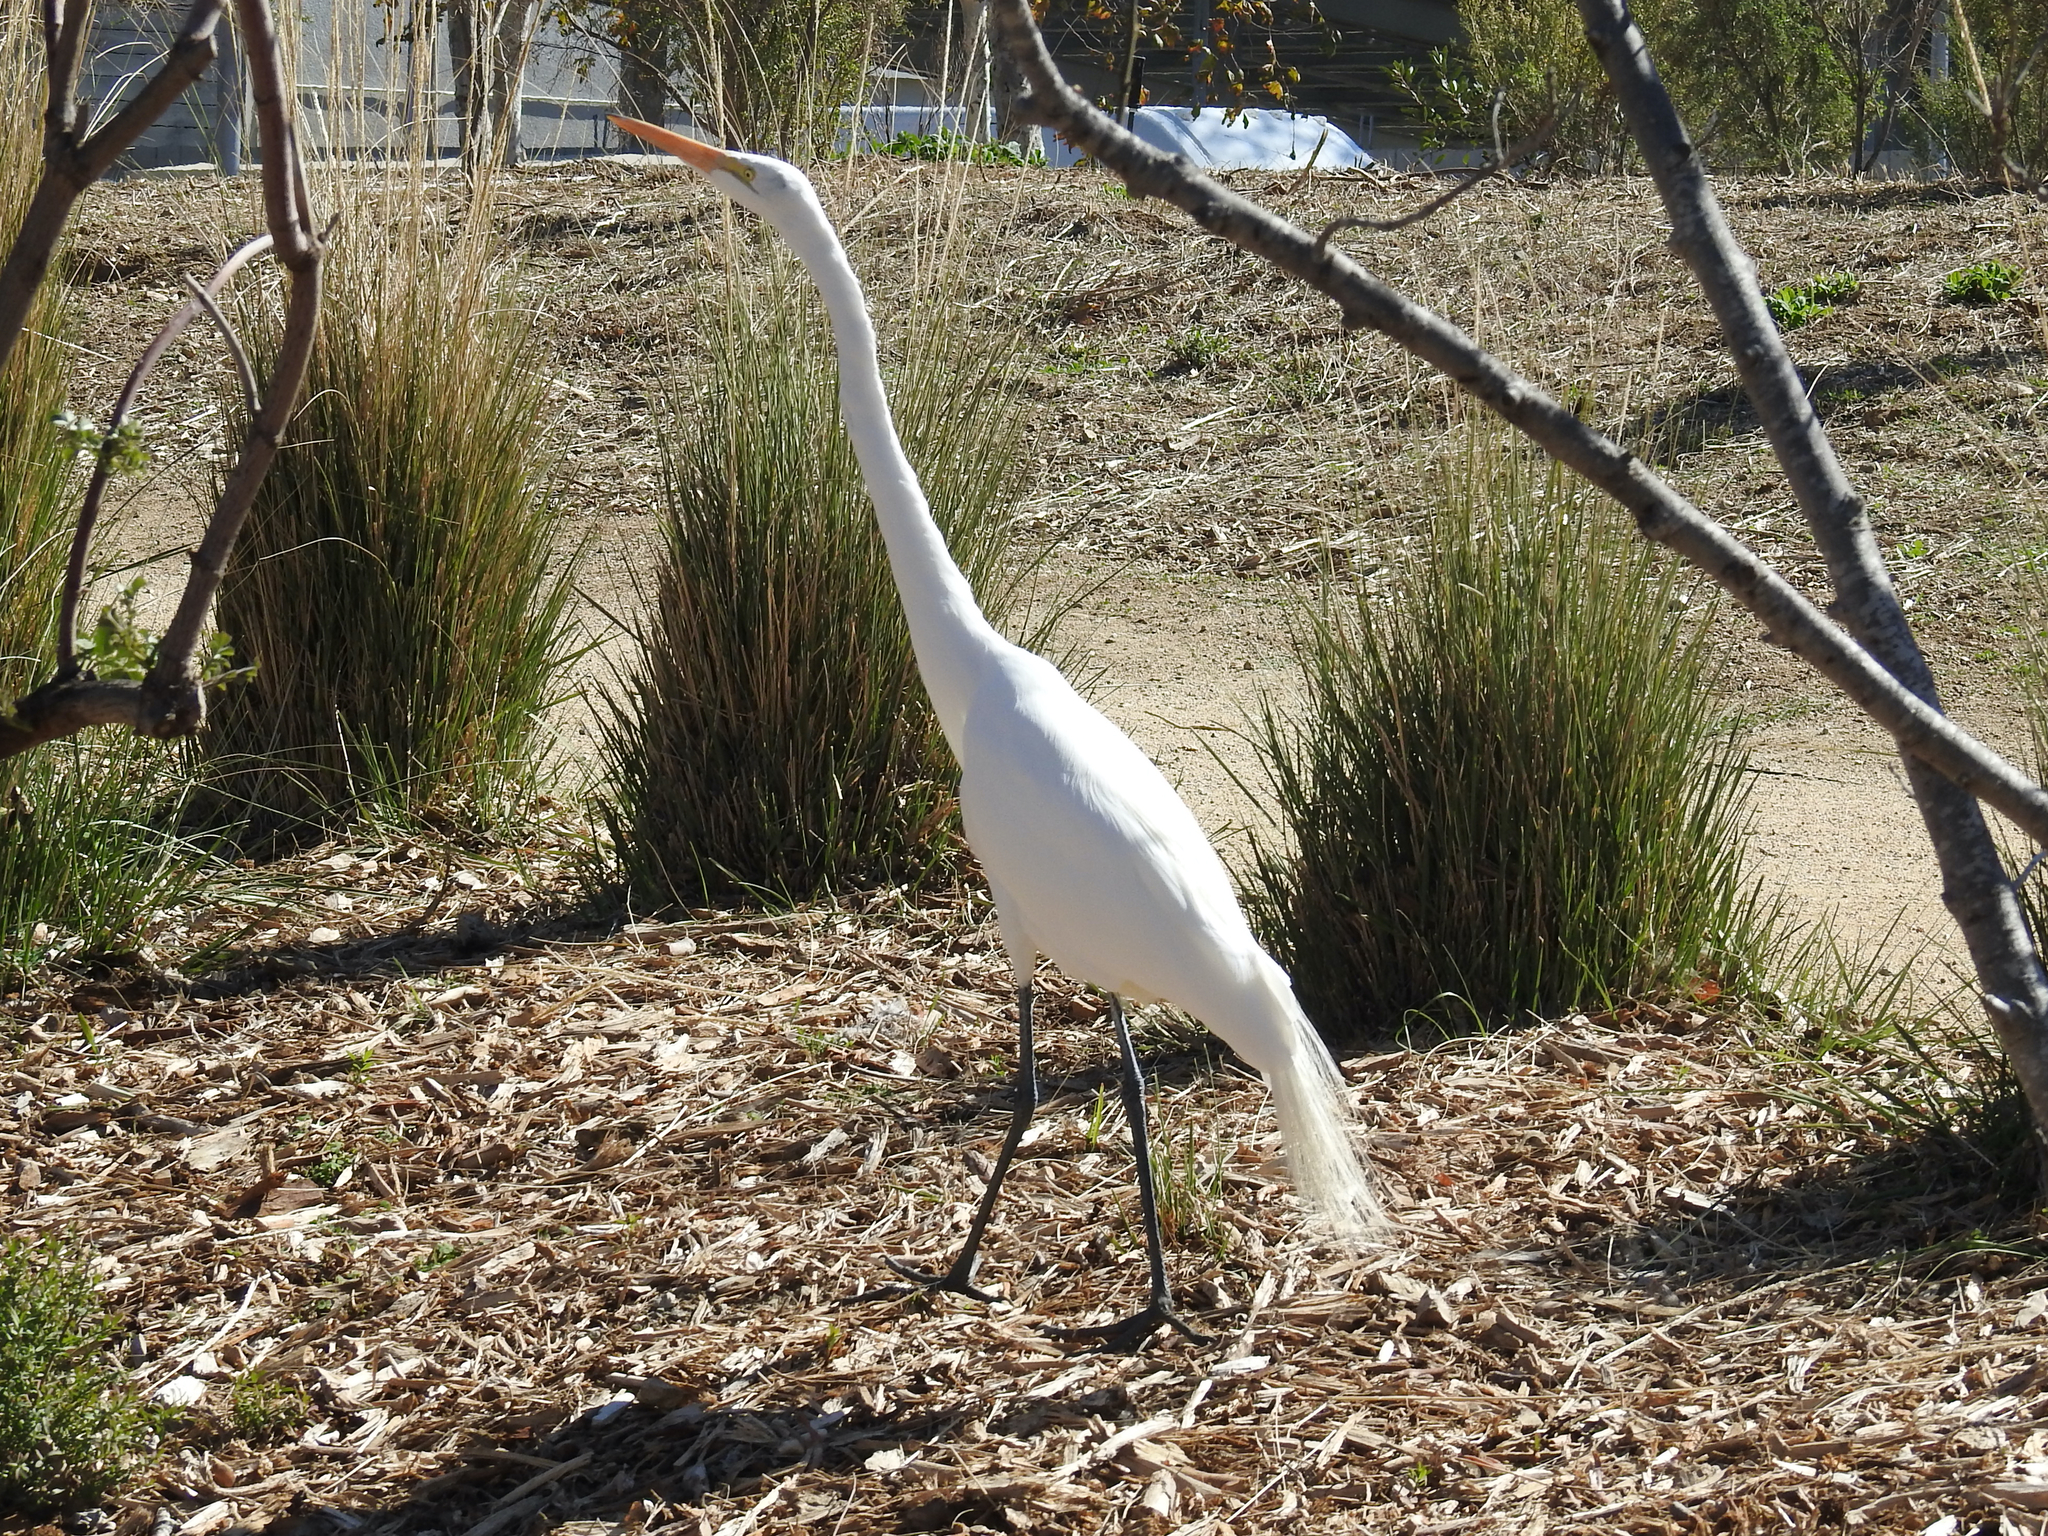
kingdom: Animalia
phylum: Chordata
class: Aves
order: Pelecaniformes
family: Ardeidae
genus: Ardea
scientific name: Ardea alba
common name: Great egret
